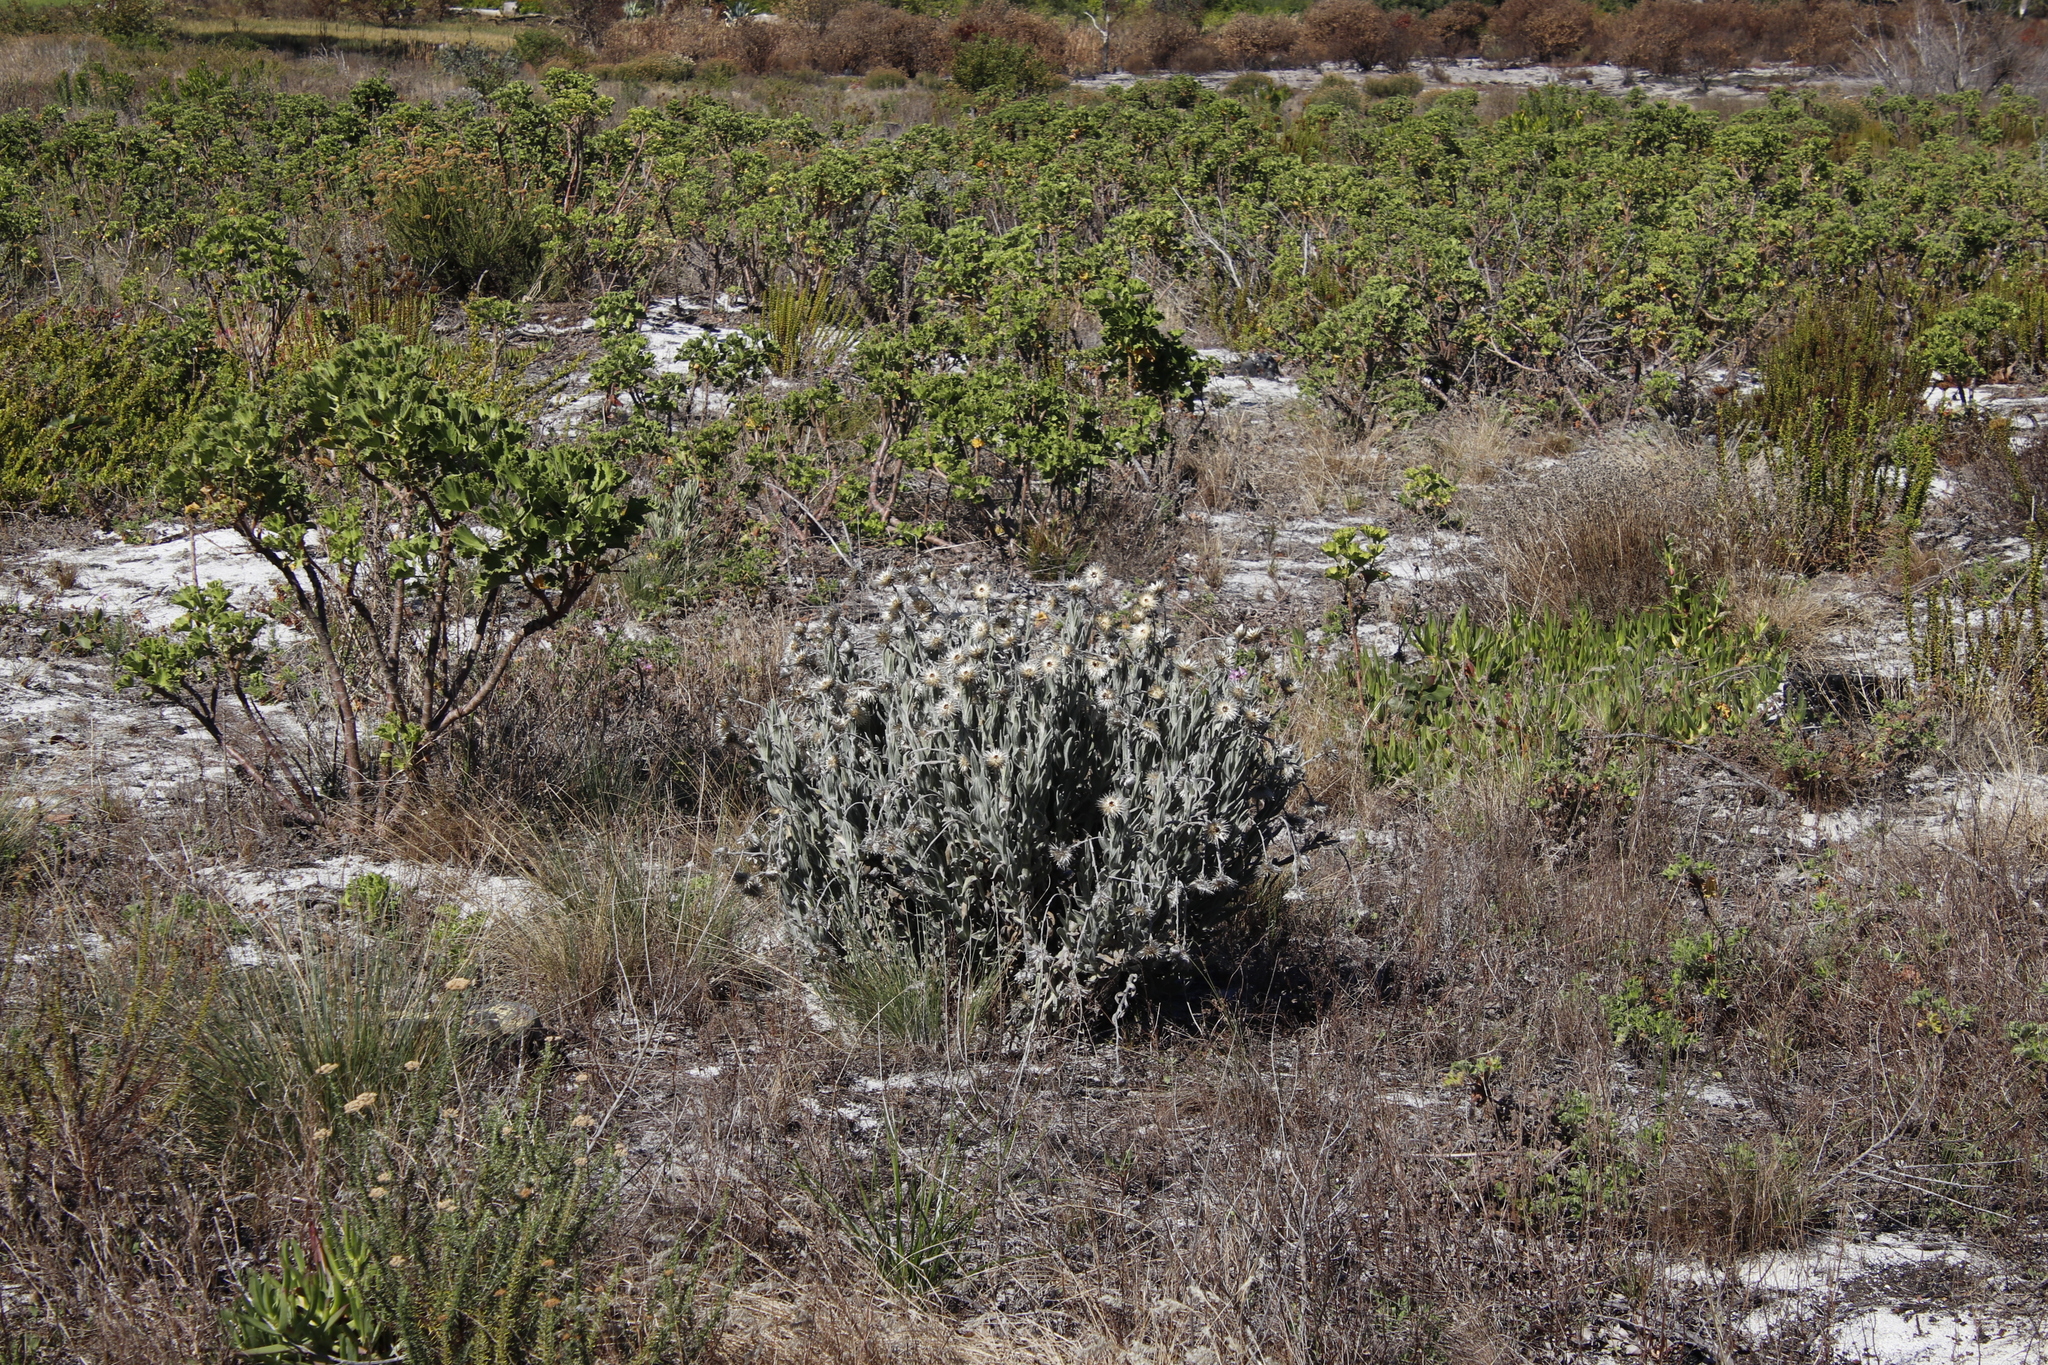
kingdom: Plantae
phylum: Tracheophyta
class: Magnoliopsida
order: Asterales
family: Asteraceae
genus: Syncarpha
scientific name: Syncarpha vestita
